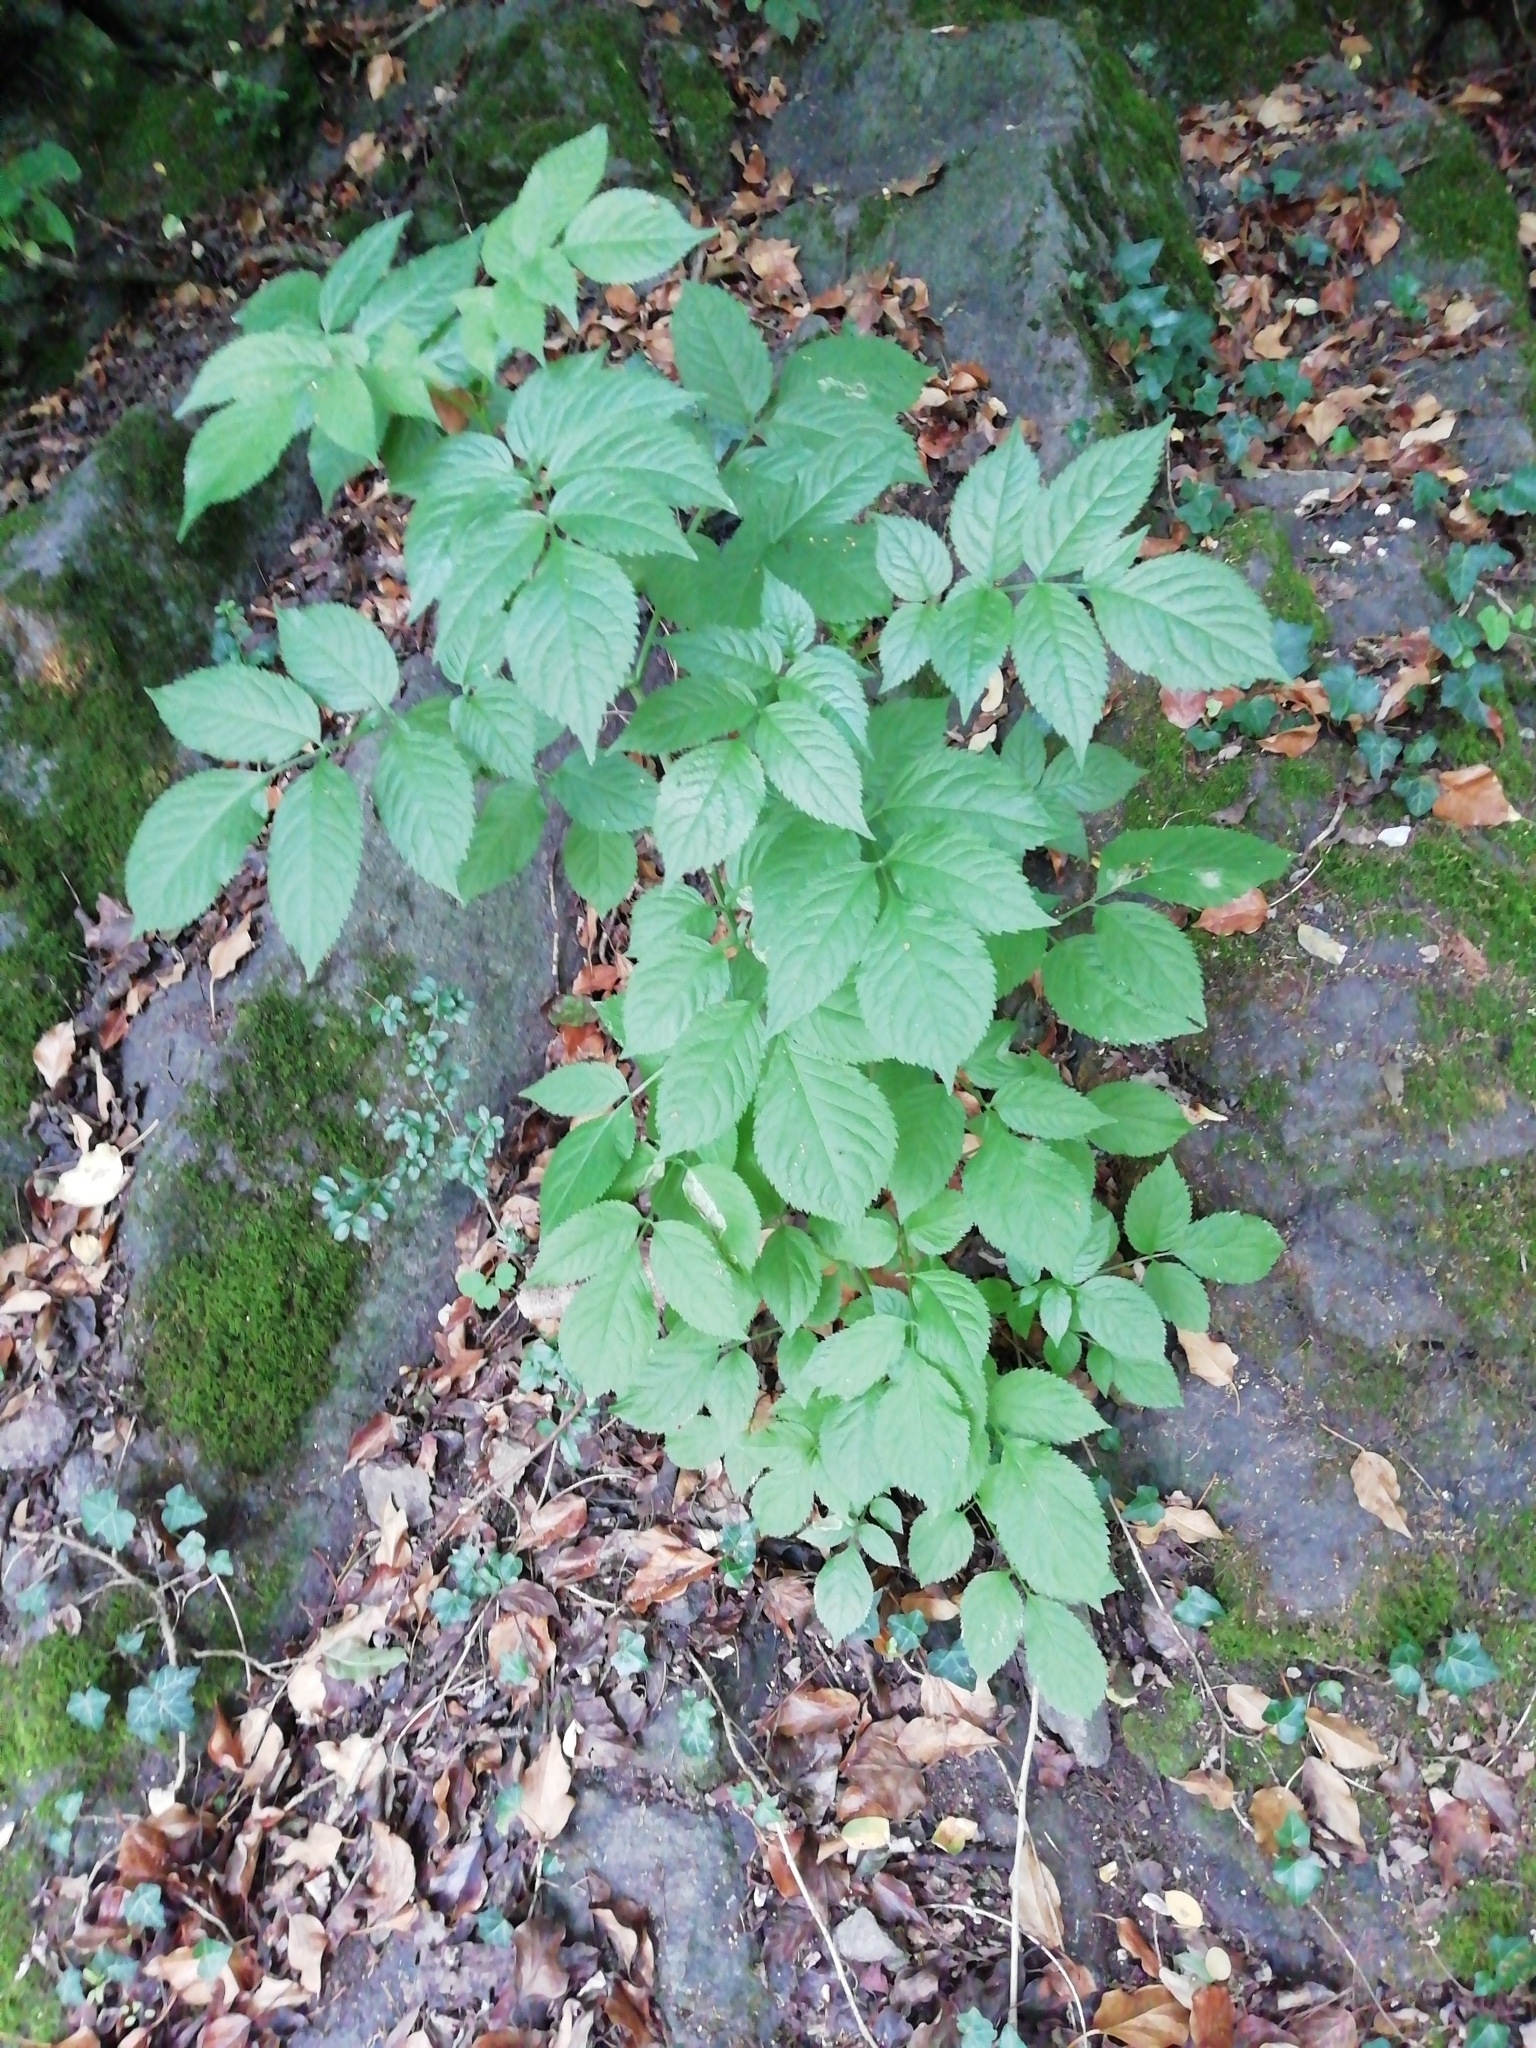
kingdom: Plantae
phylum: Tracheophyta
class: Magnoliopsida
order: Dipsacales
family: Viburnaceae
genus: Sambucus
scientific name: Sambucus nigra
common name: Elder
